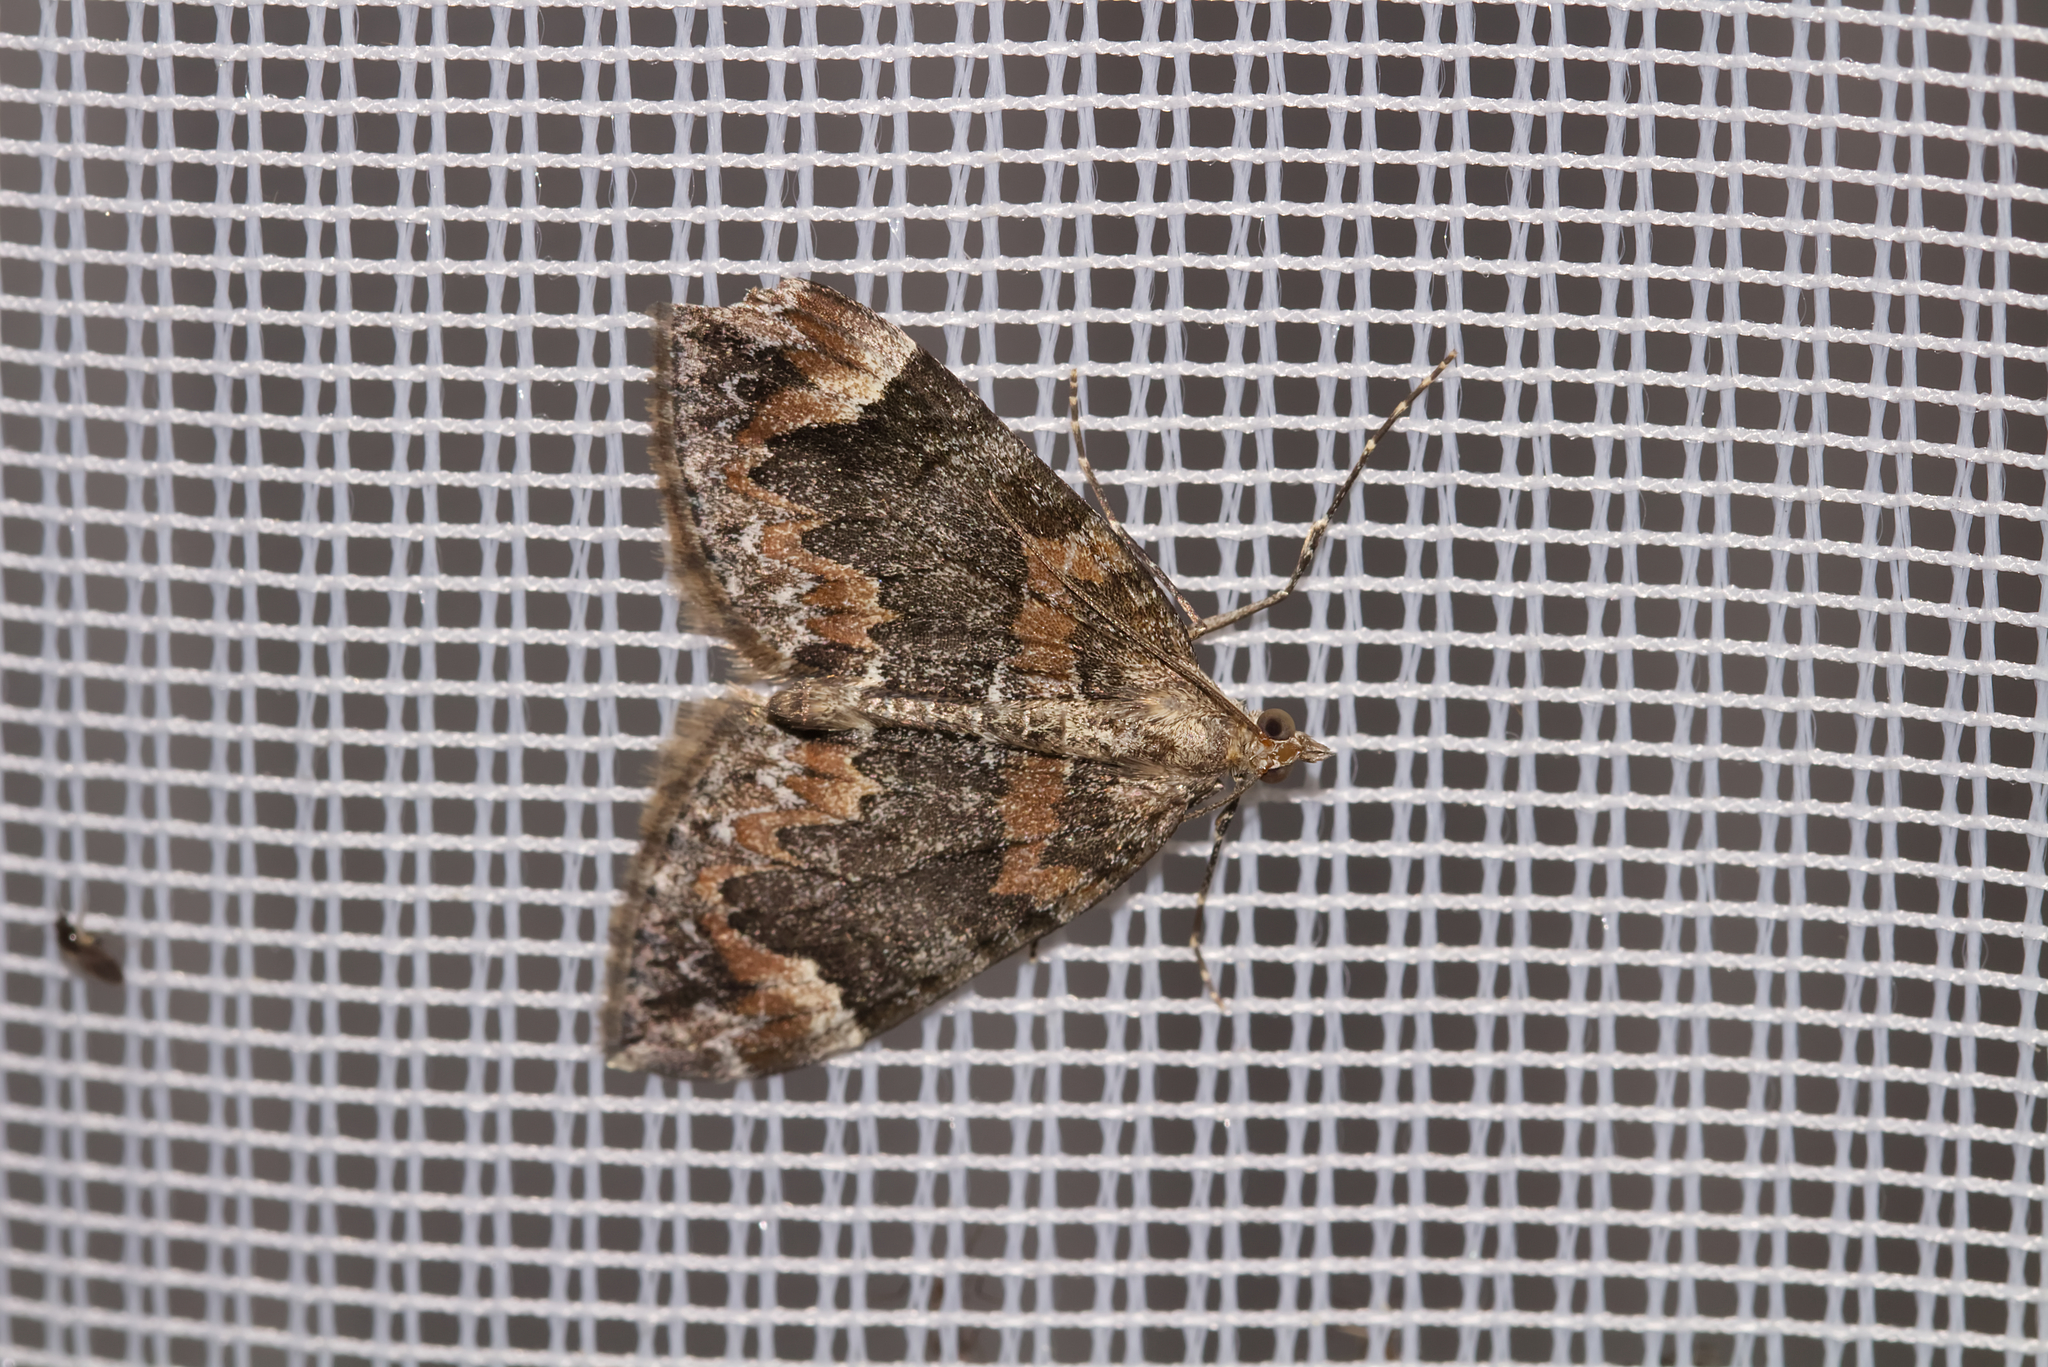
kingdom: Animalia
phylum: Arthropoda
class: Insecta
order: Lepidoptera
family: Geometridae
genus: Dysstroma
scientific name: Dysstroma citrata
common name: Dark marbled carpet
